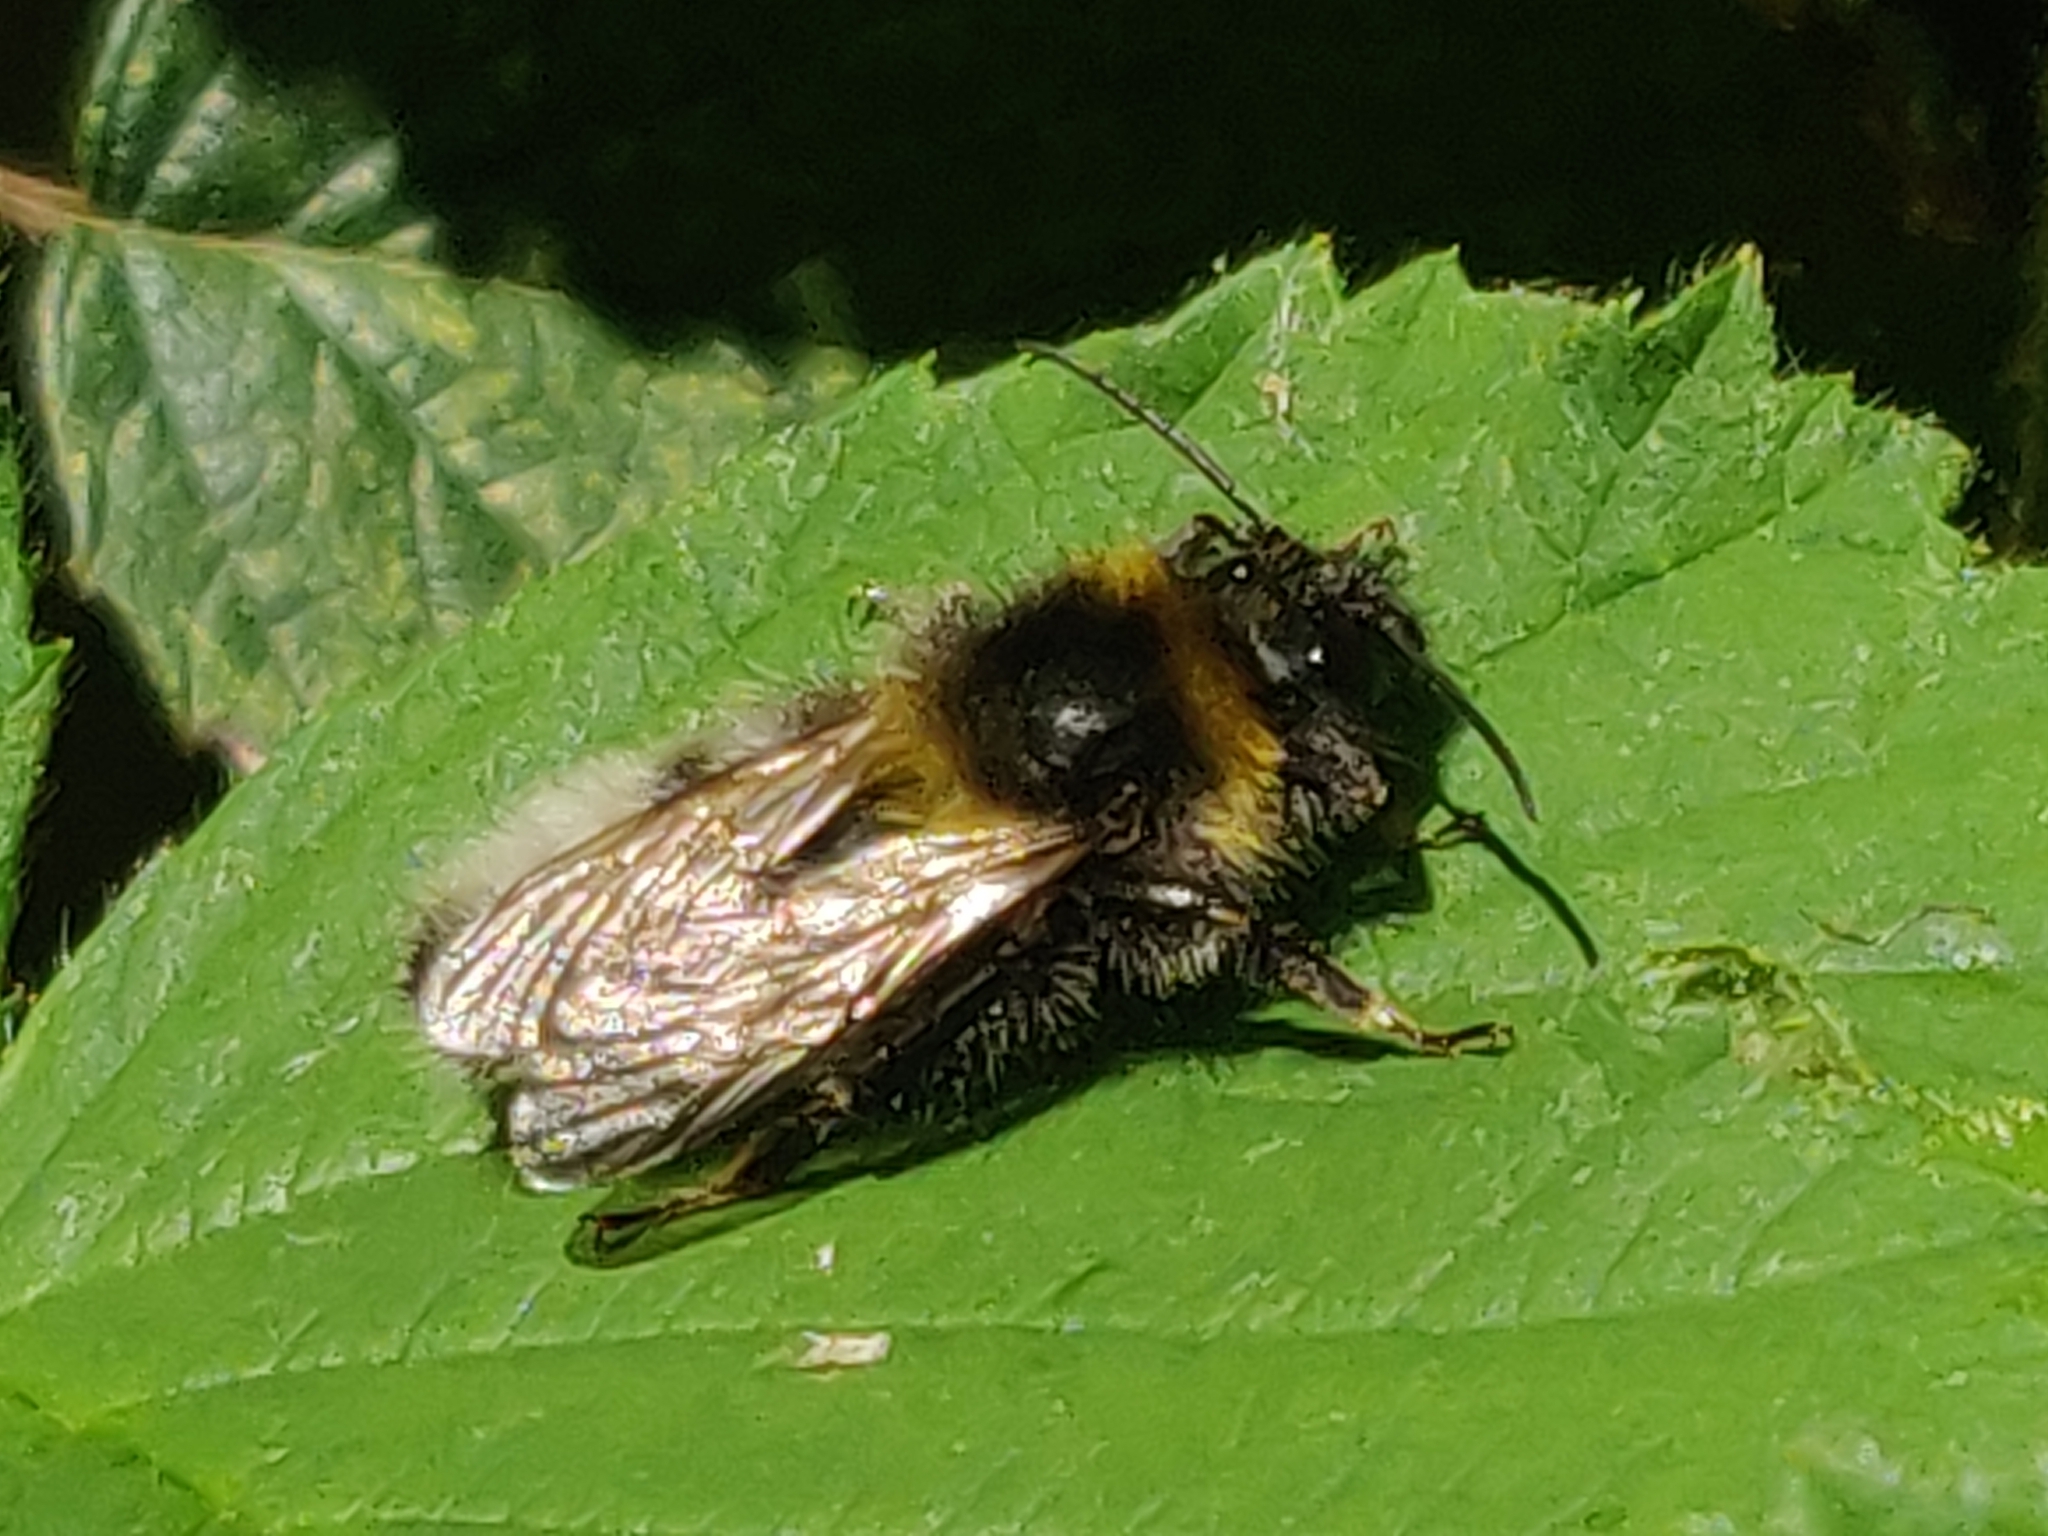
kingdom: Animalia
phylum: Arthropoda
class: Insecta
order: Hymenoptera
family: Apidae
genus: Bombus
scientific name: Bombus hortorum
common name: Garden bumblebee
